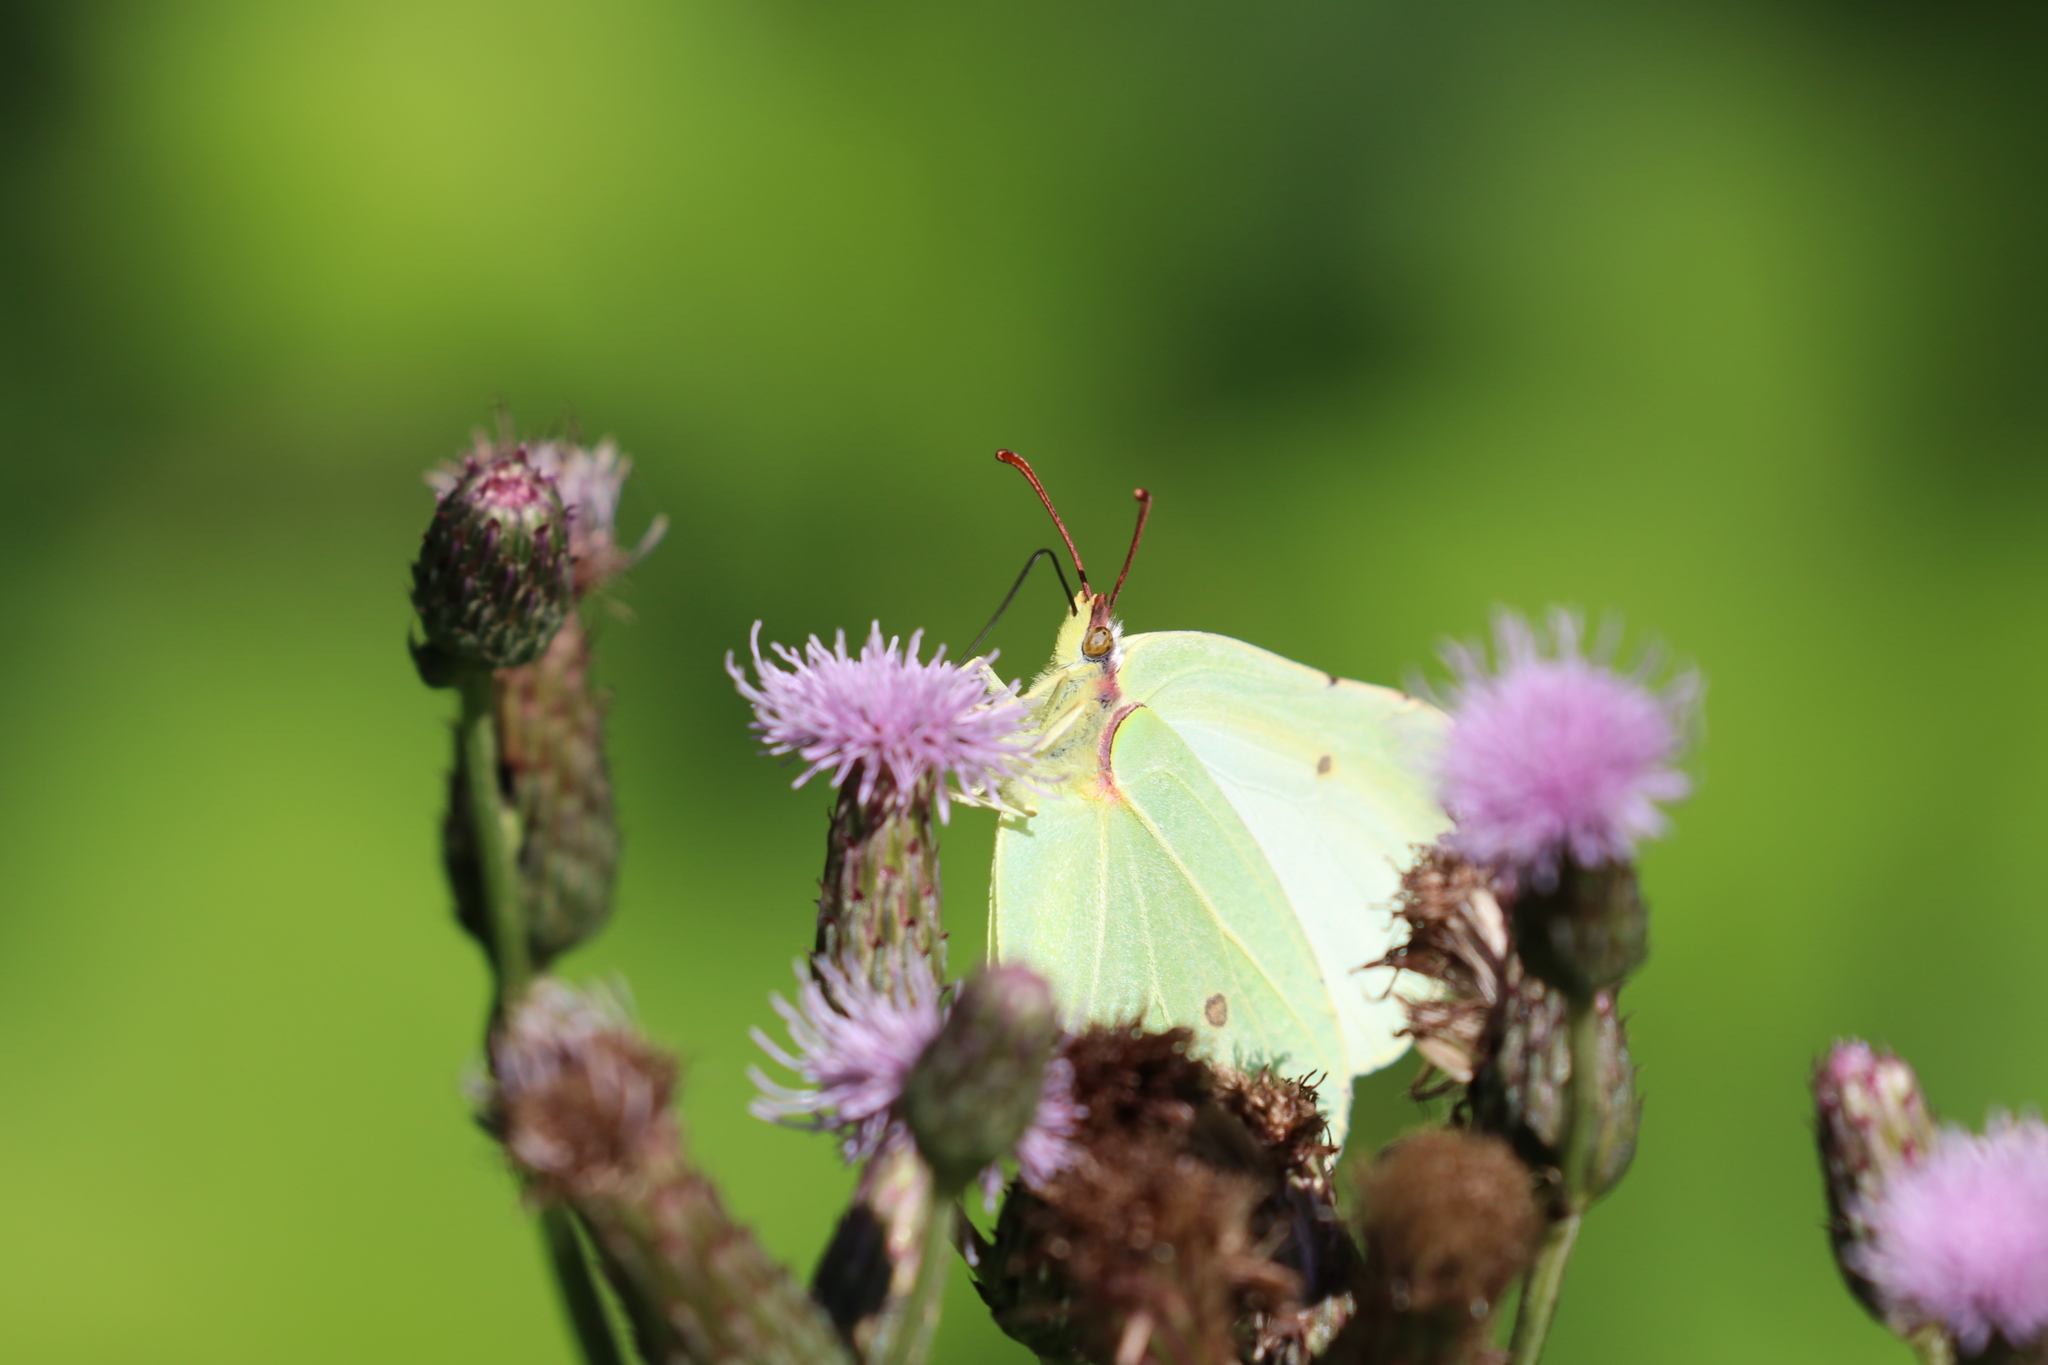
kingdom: Animalia
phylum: Arthropoda
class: Insecta
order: Lepidoptera
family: Pieridae
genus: Gonepteryx
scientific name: Gonepteryx rhamni
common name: Brimstone
